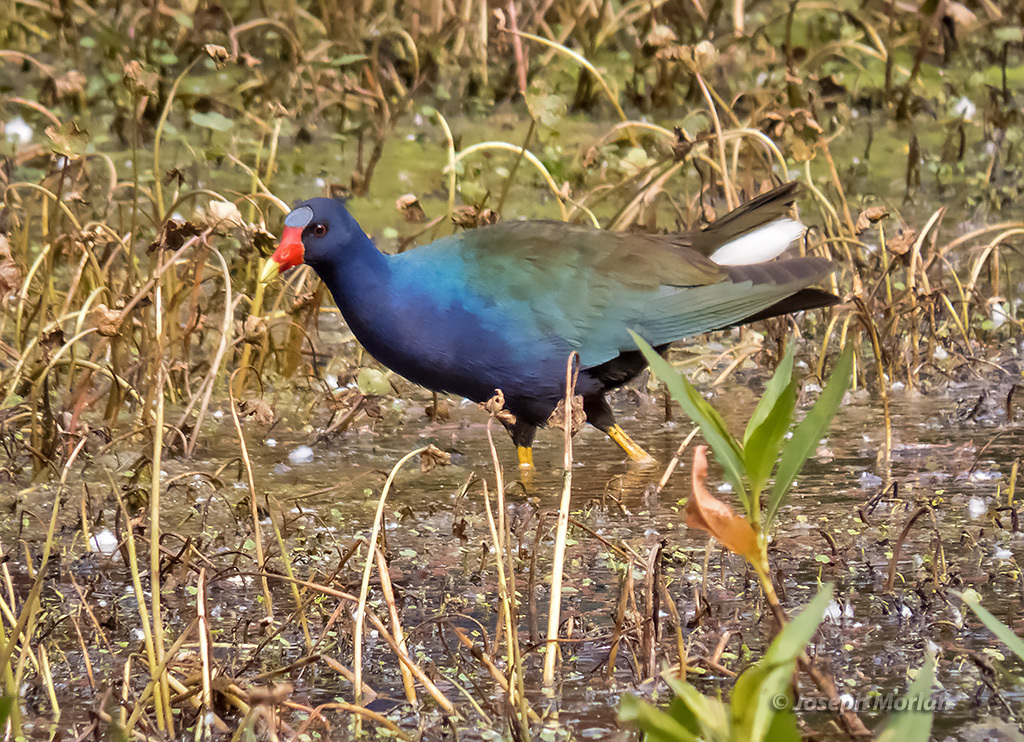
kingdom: Animalia
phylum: Chordata
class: Aves
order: Gruiformes
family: Rallidae
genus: Porphyrio
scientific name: Porphyrio martinica
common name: Purple gallinule
